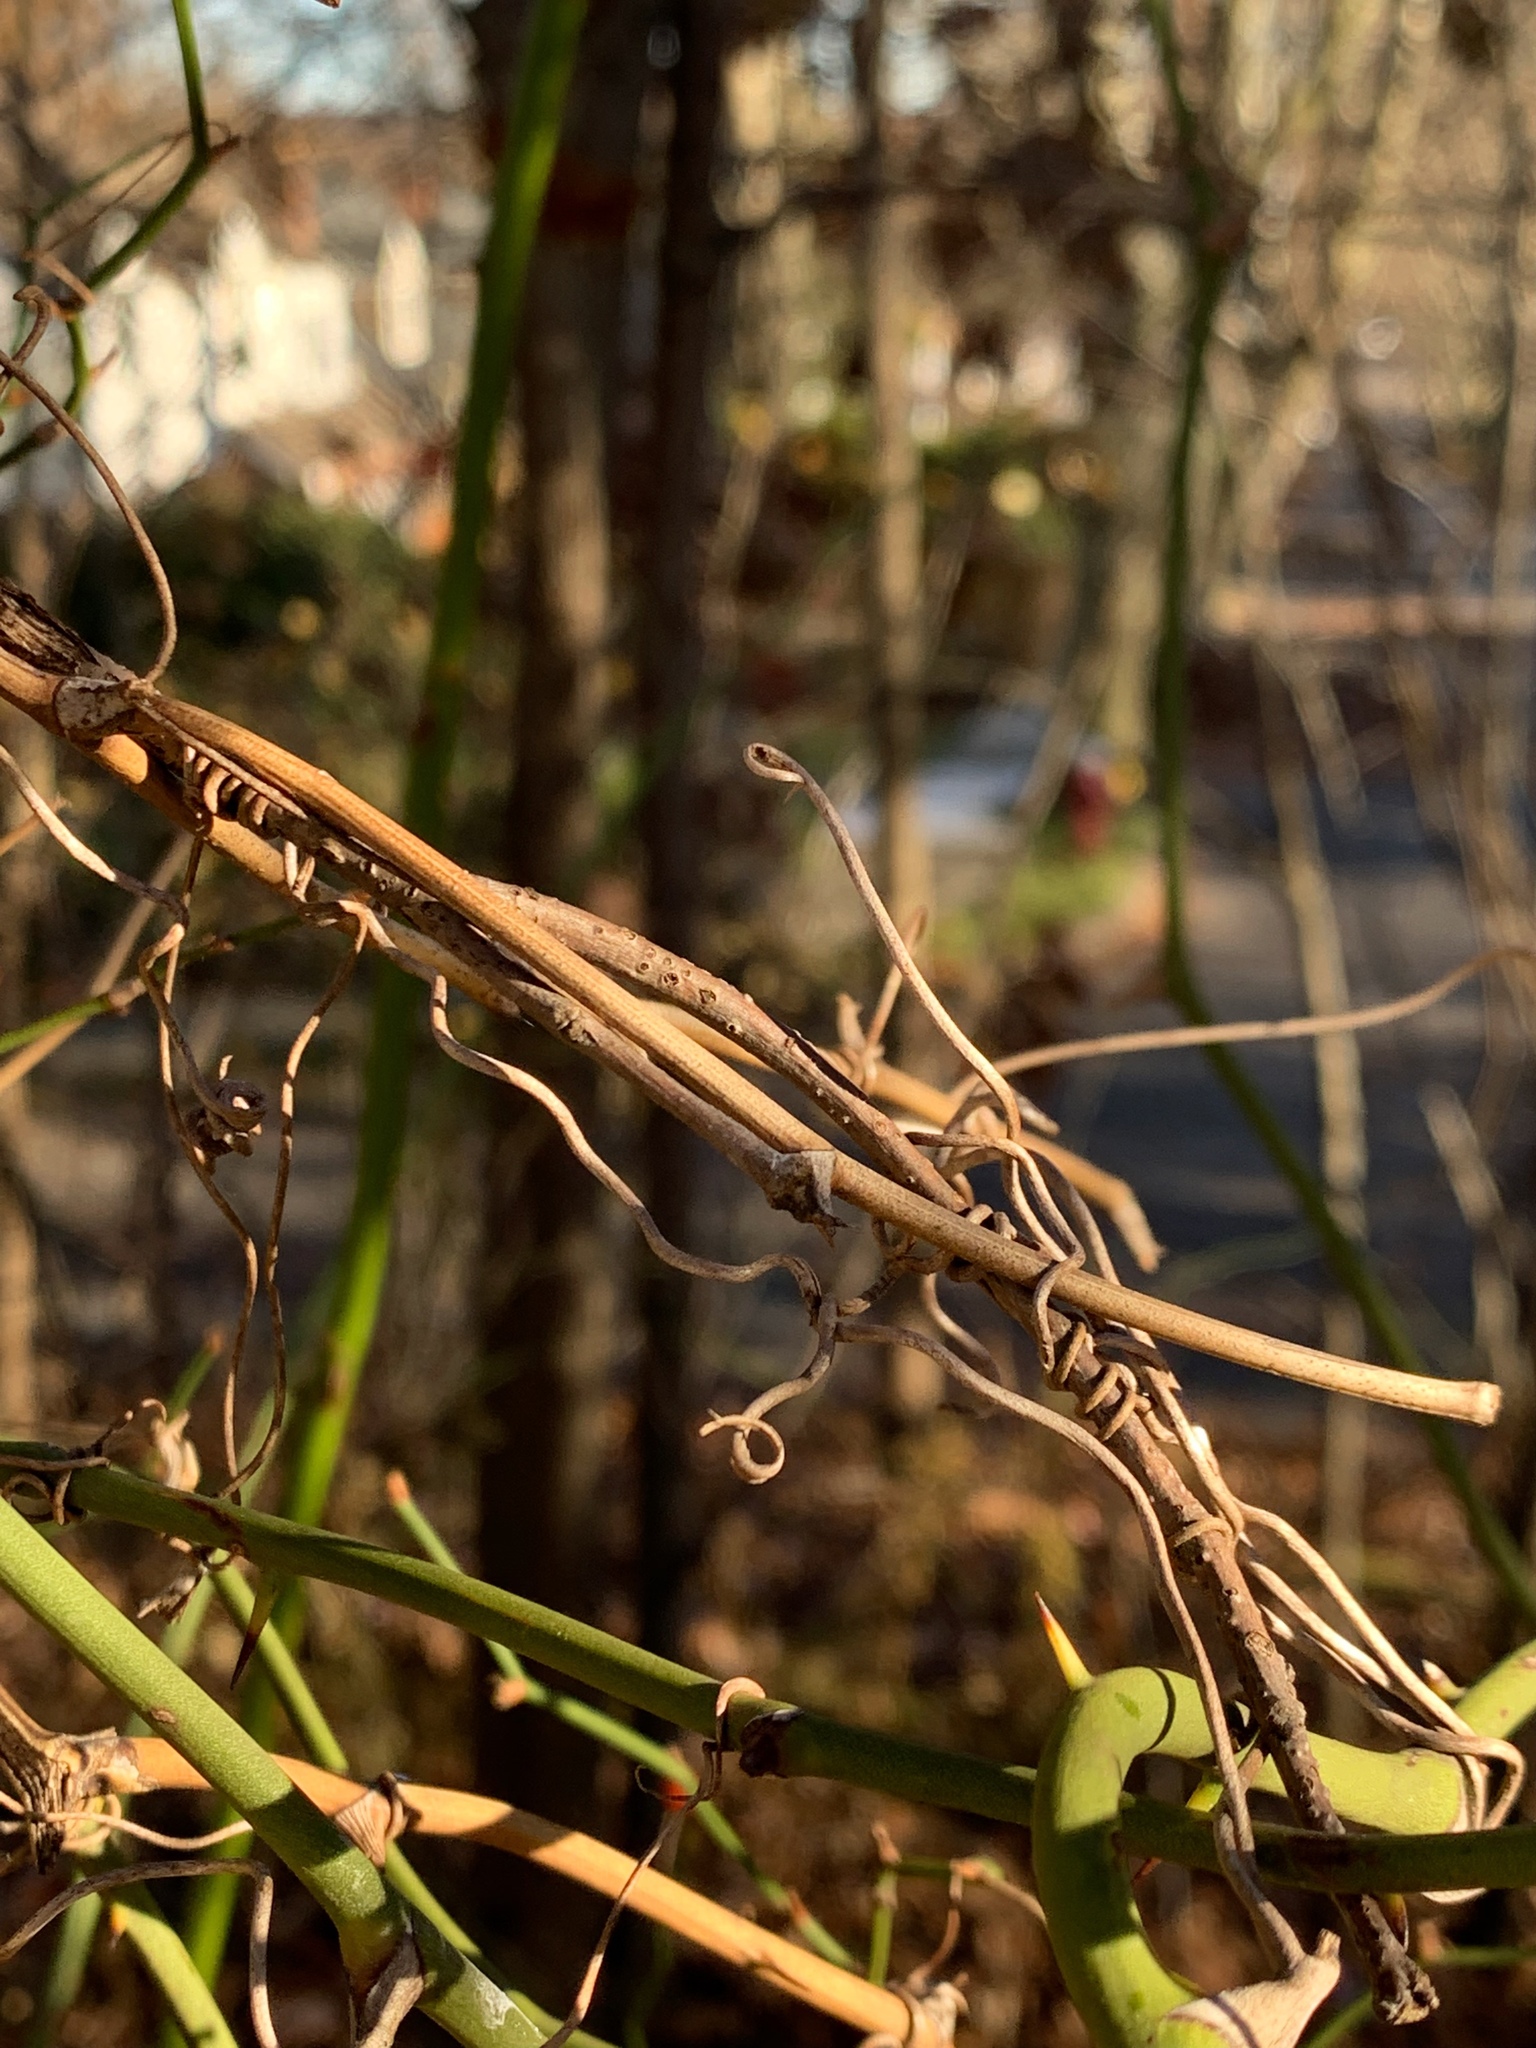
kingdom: Plantae
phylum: Tracheophyta
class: Liliopsida
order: Liliales
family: Smilacaceae
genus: Smilax
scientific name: Smilax rotundifolia
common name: Bullbriar
